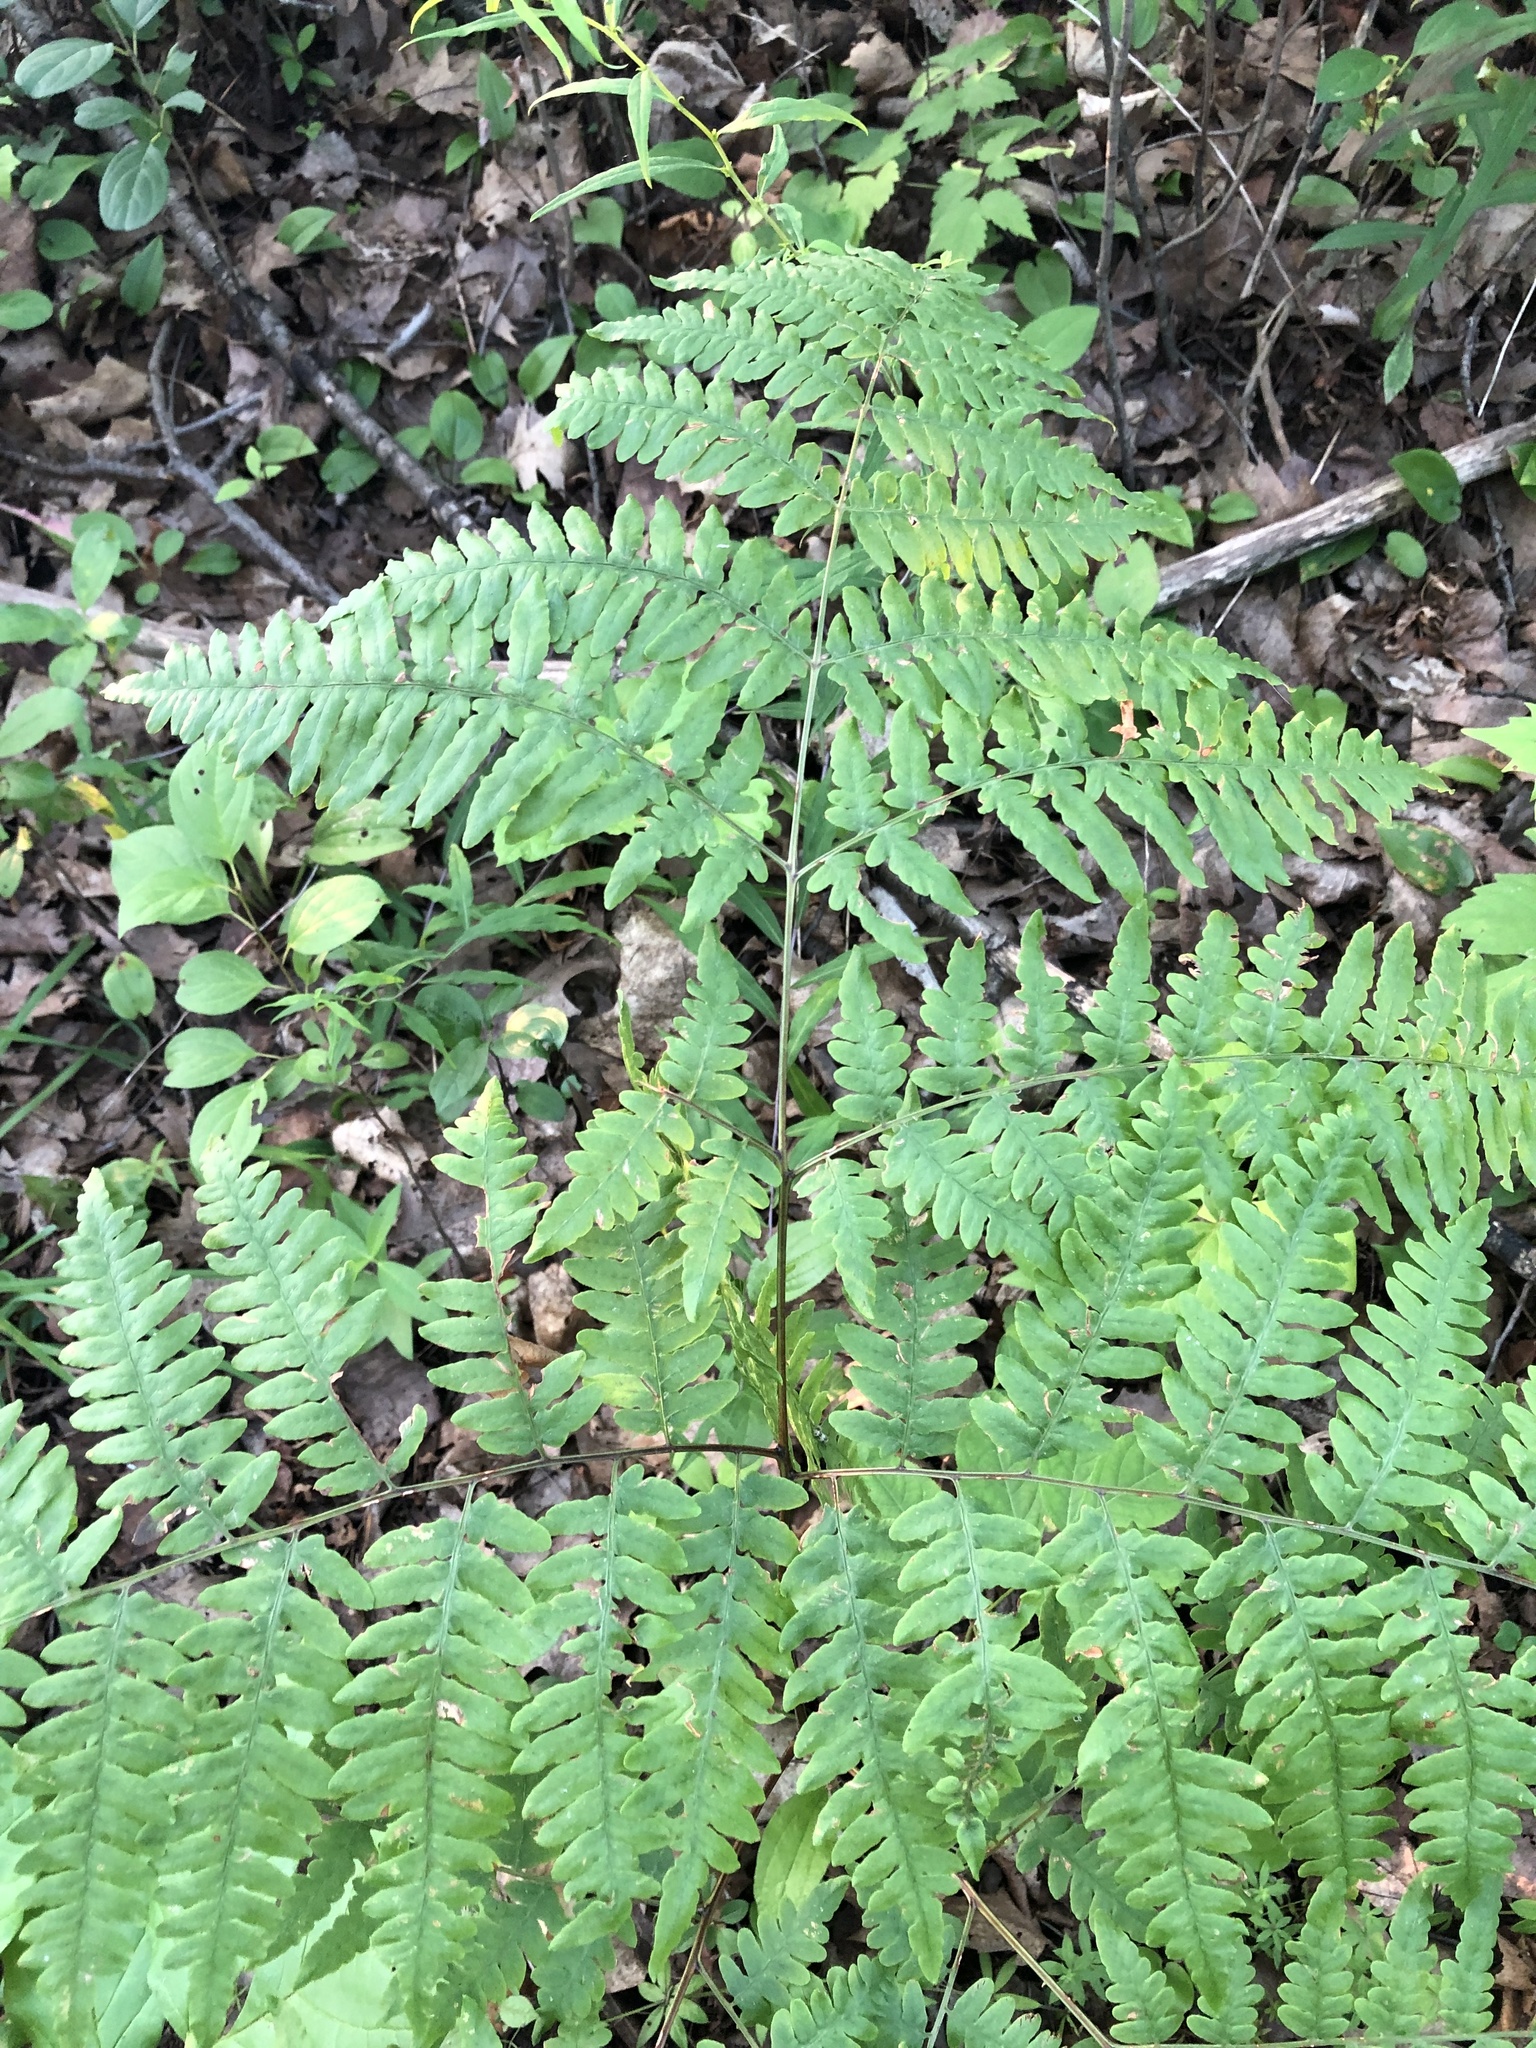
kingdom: Plantae
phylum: Tracheophyta
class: Polypodiopsida
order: Polypodiales
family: Dennstaedtiaceae
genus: Pteridium
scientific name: Pteridium aquilinum
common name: Bracken
